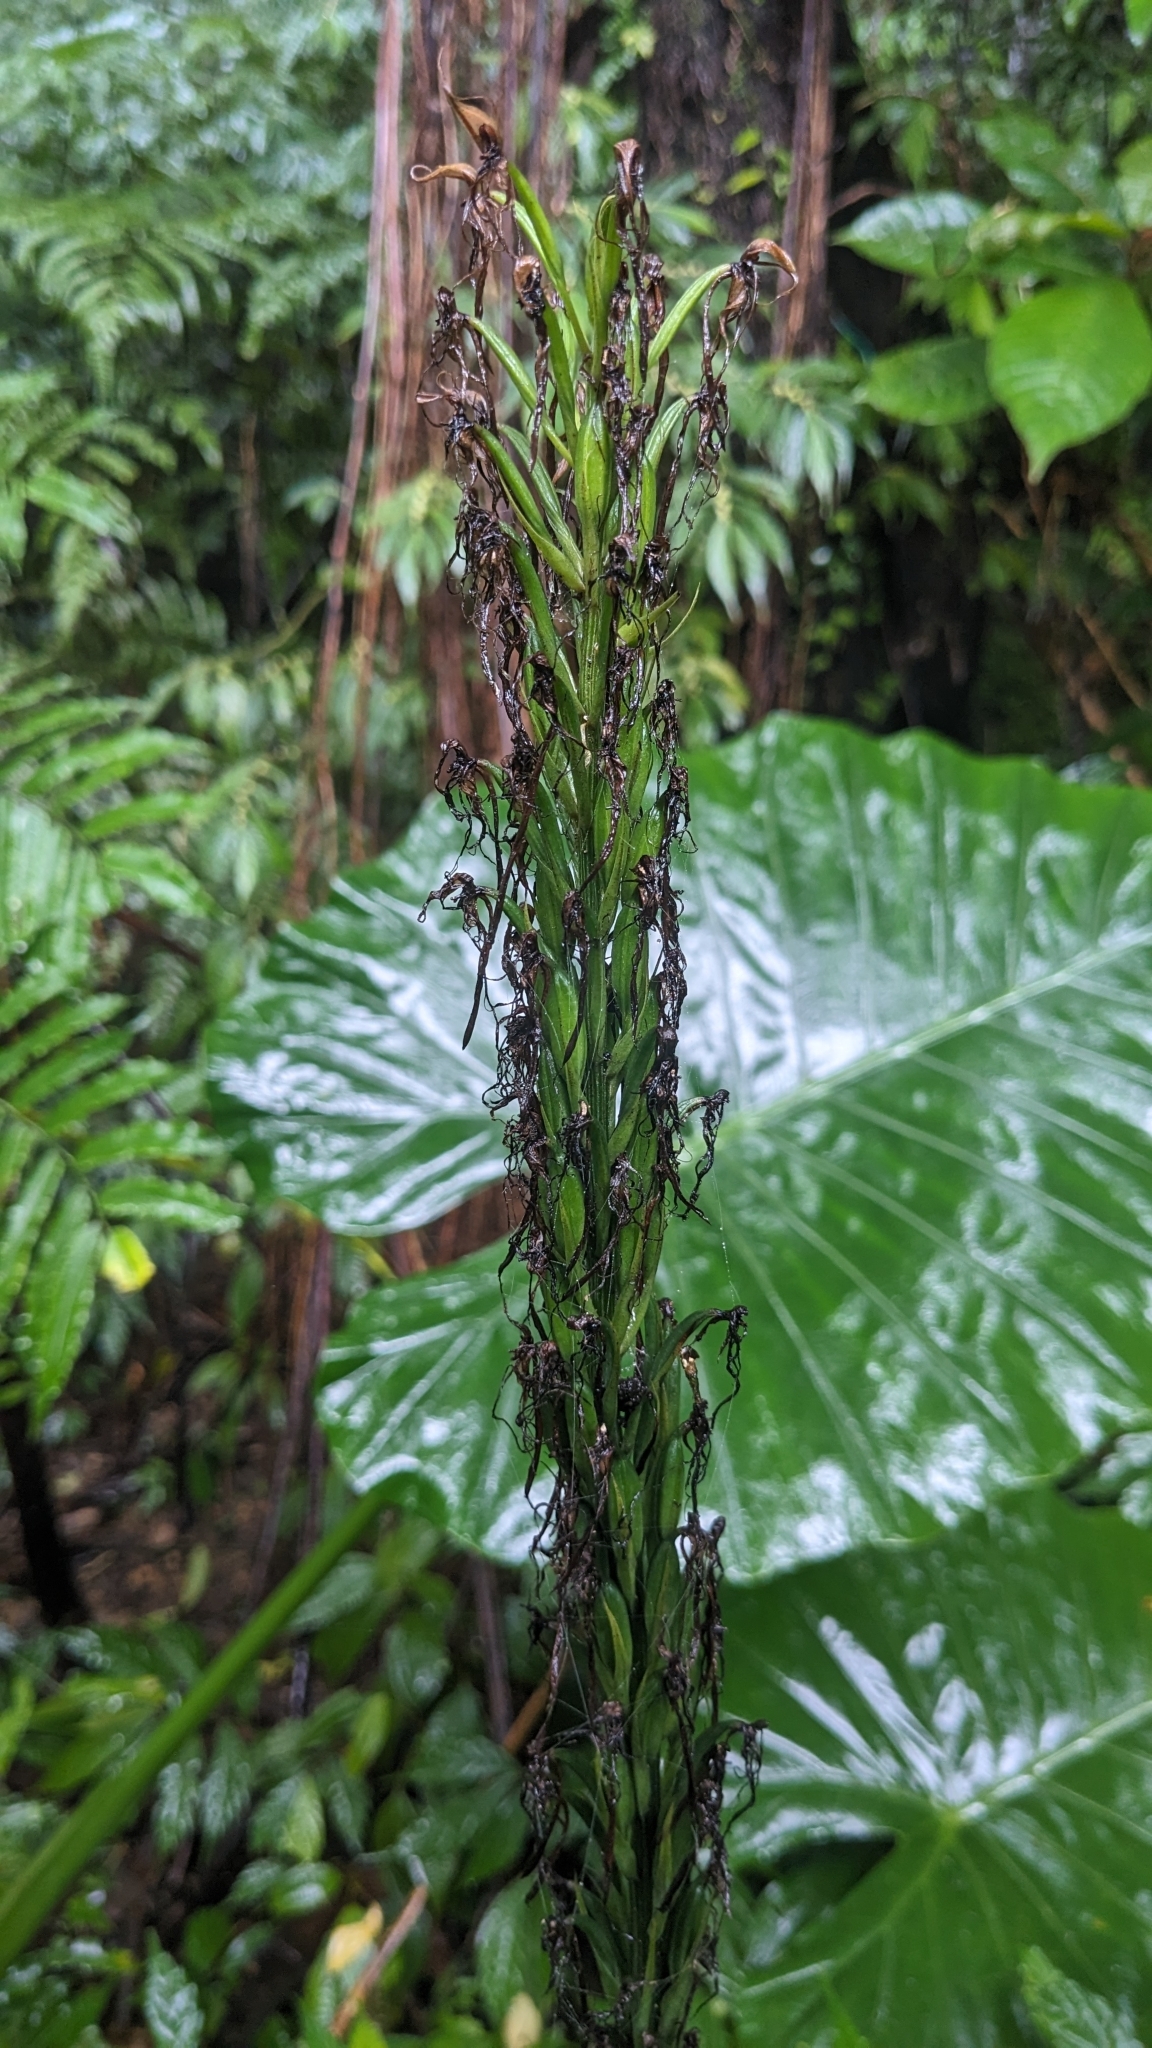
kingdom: Plantae
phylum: Tracheophyta
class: Liliopsida
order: Asparagales
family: Orchidaceae
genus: Habenaria
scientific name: Habenaria pantlingiana
